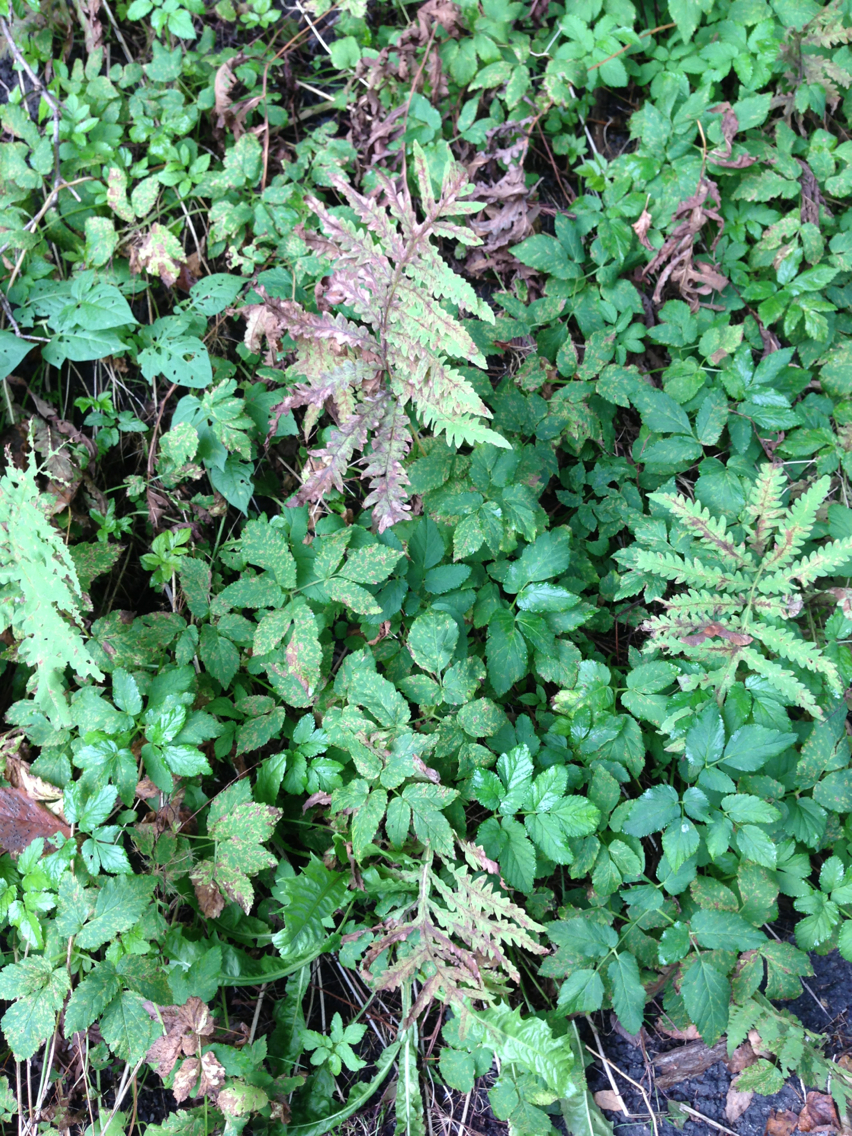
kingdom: Plantae
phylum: Tracheophyta
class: Magnoliopsida
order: Apiales
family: Apiaceae
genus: Aegopodium
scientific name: Aegopodium podagraria
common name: Ground-elder
